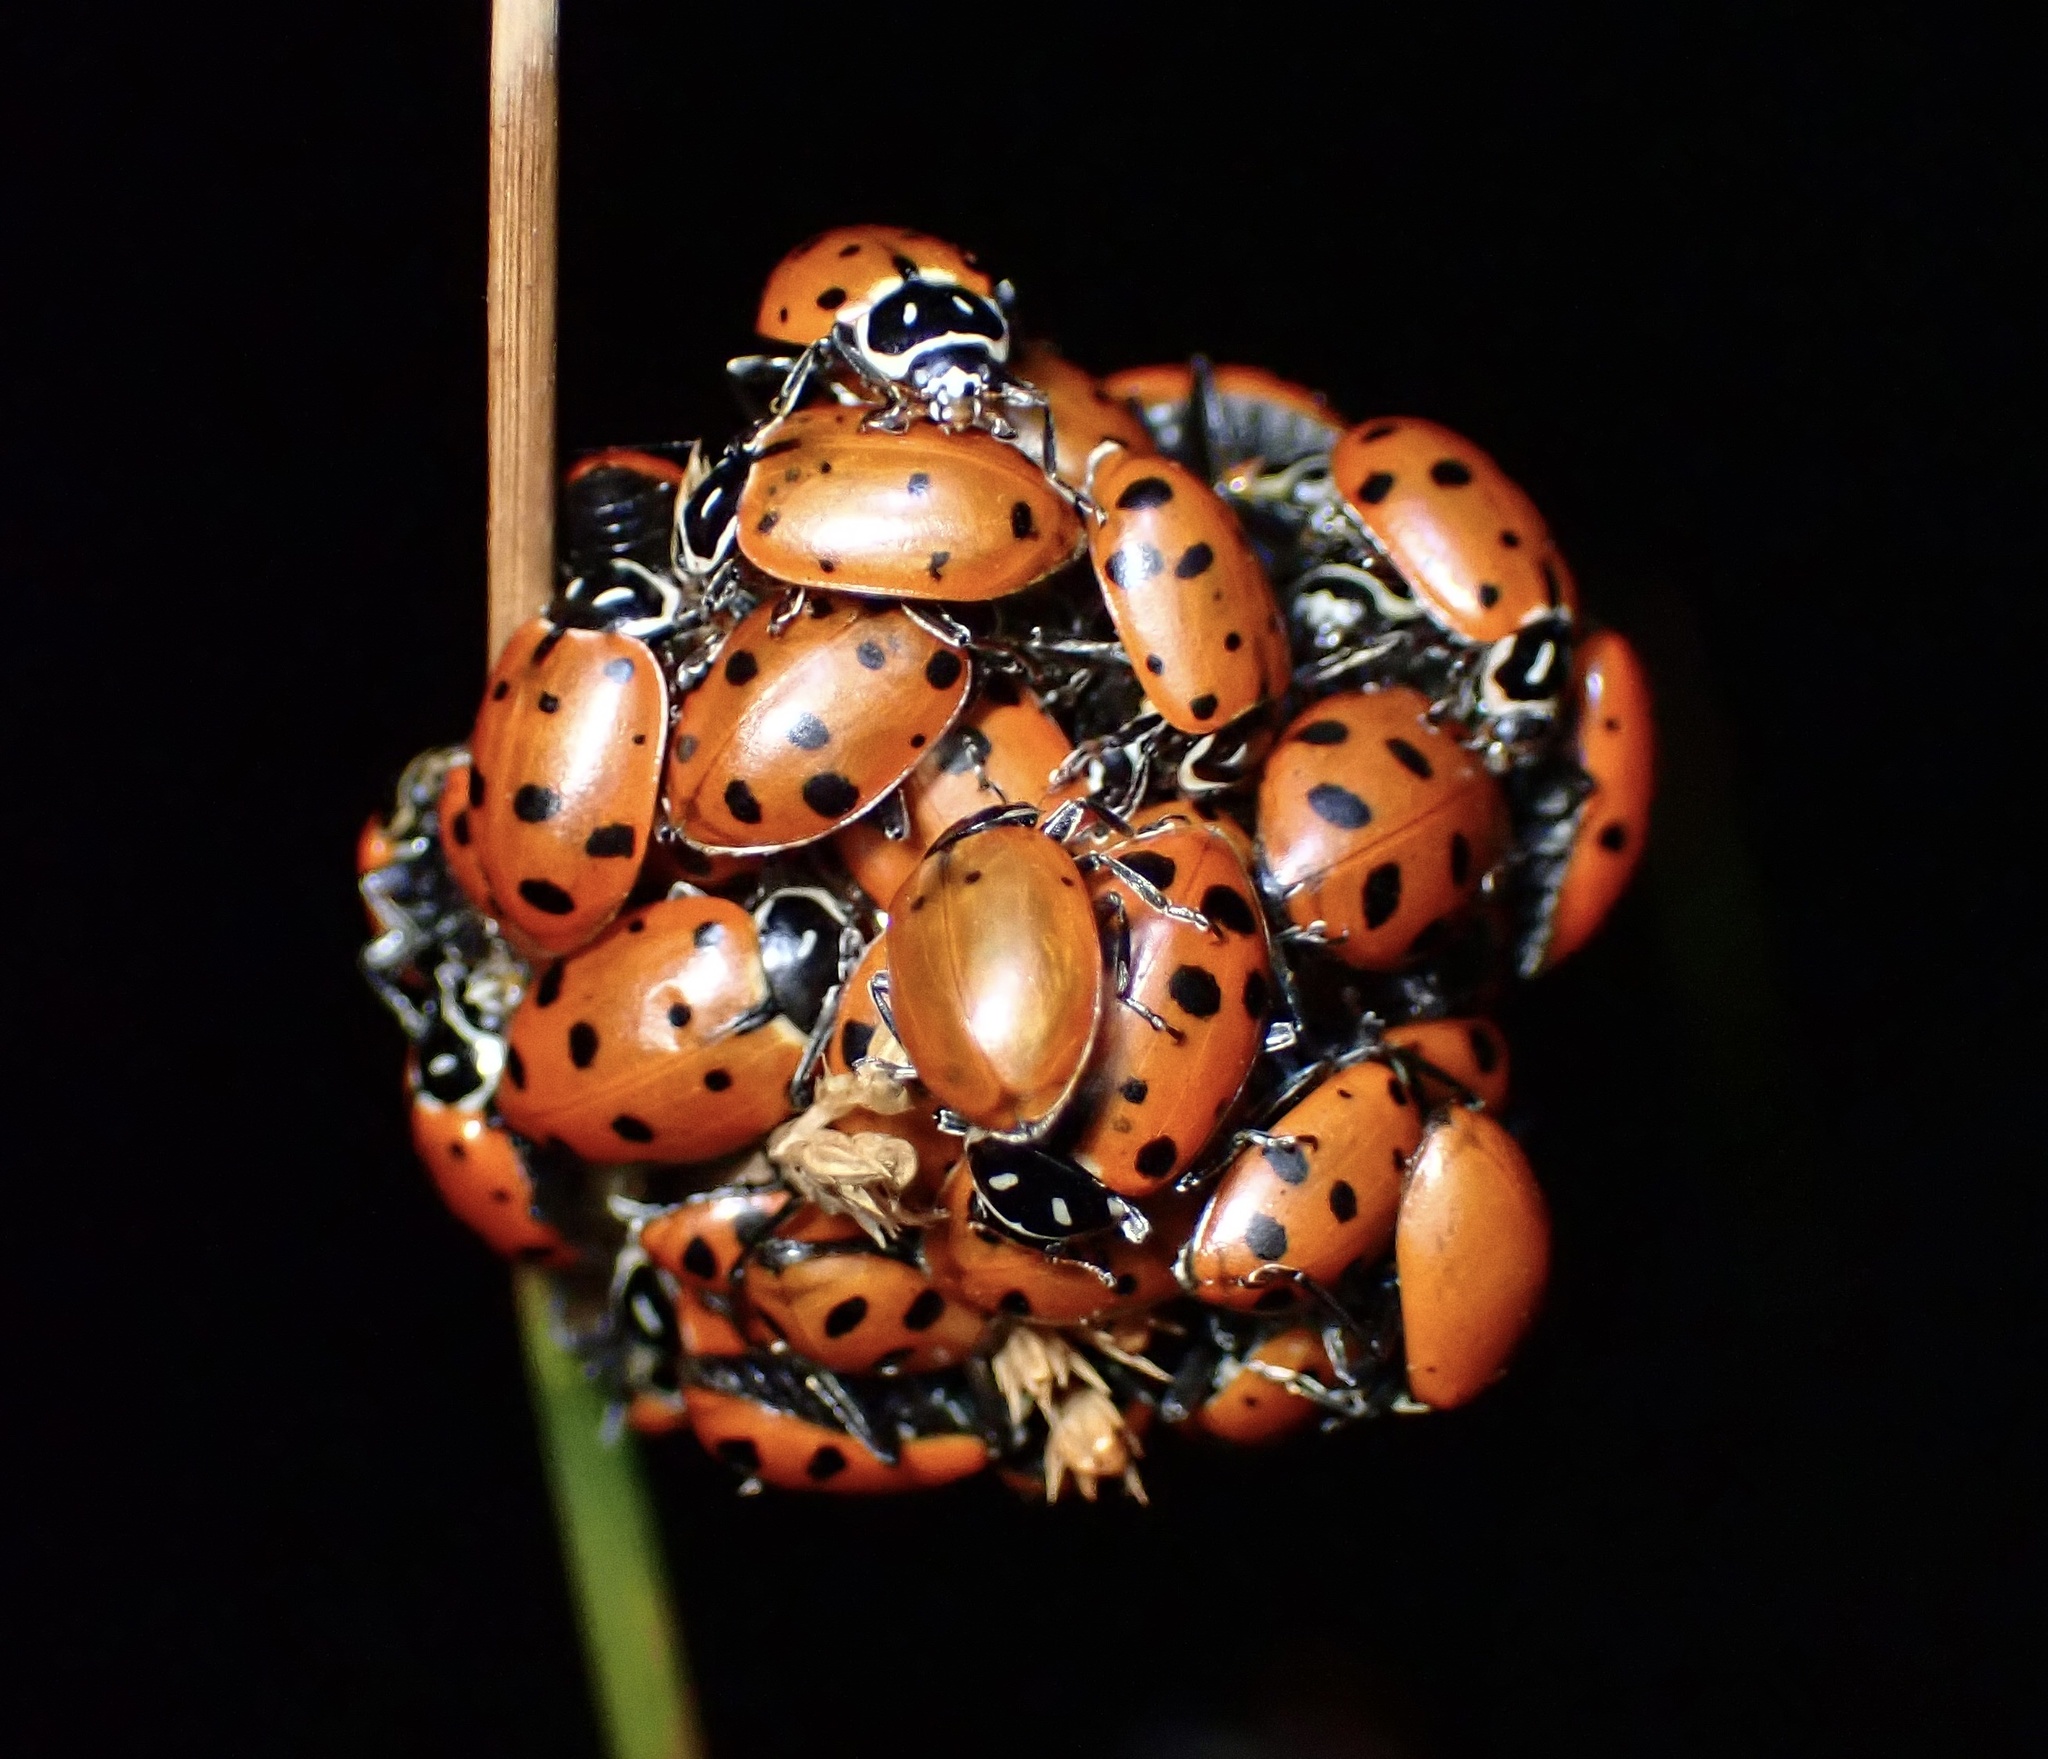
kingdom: Animalia
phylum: Arthropoda
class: Insecta
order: Coleoptera
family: Coccinellidae
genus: Hippodamia
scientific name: Hippodamia convergens
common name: Convergent lady beetle
